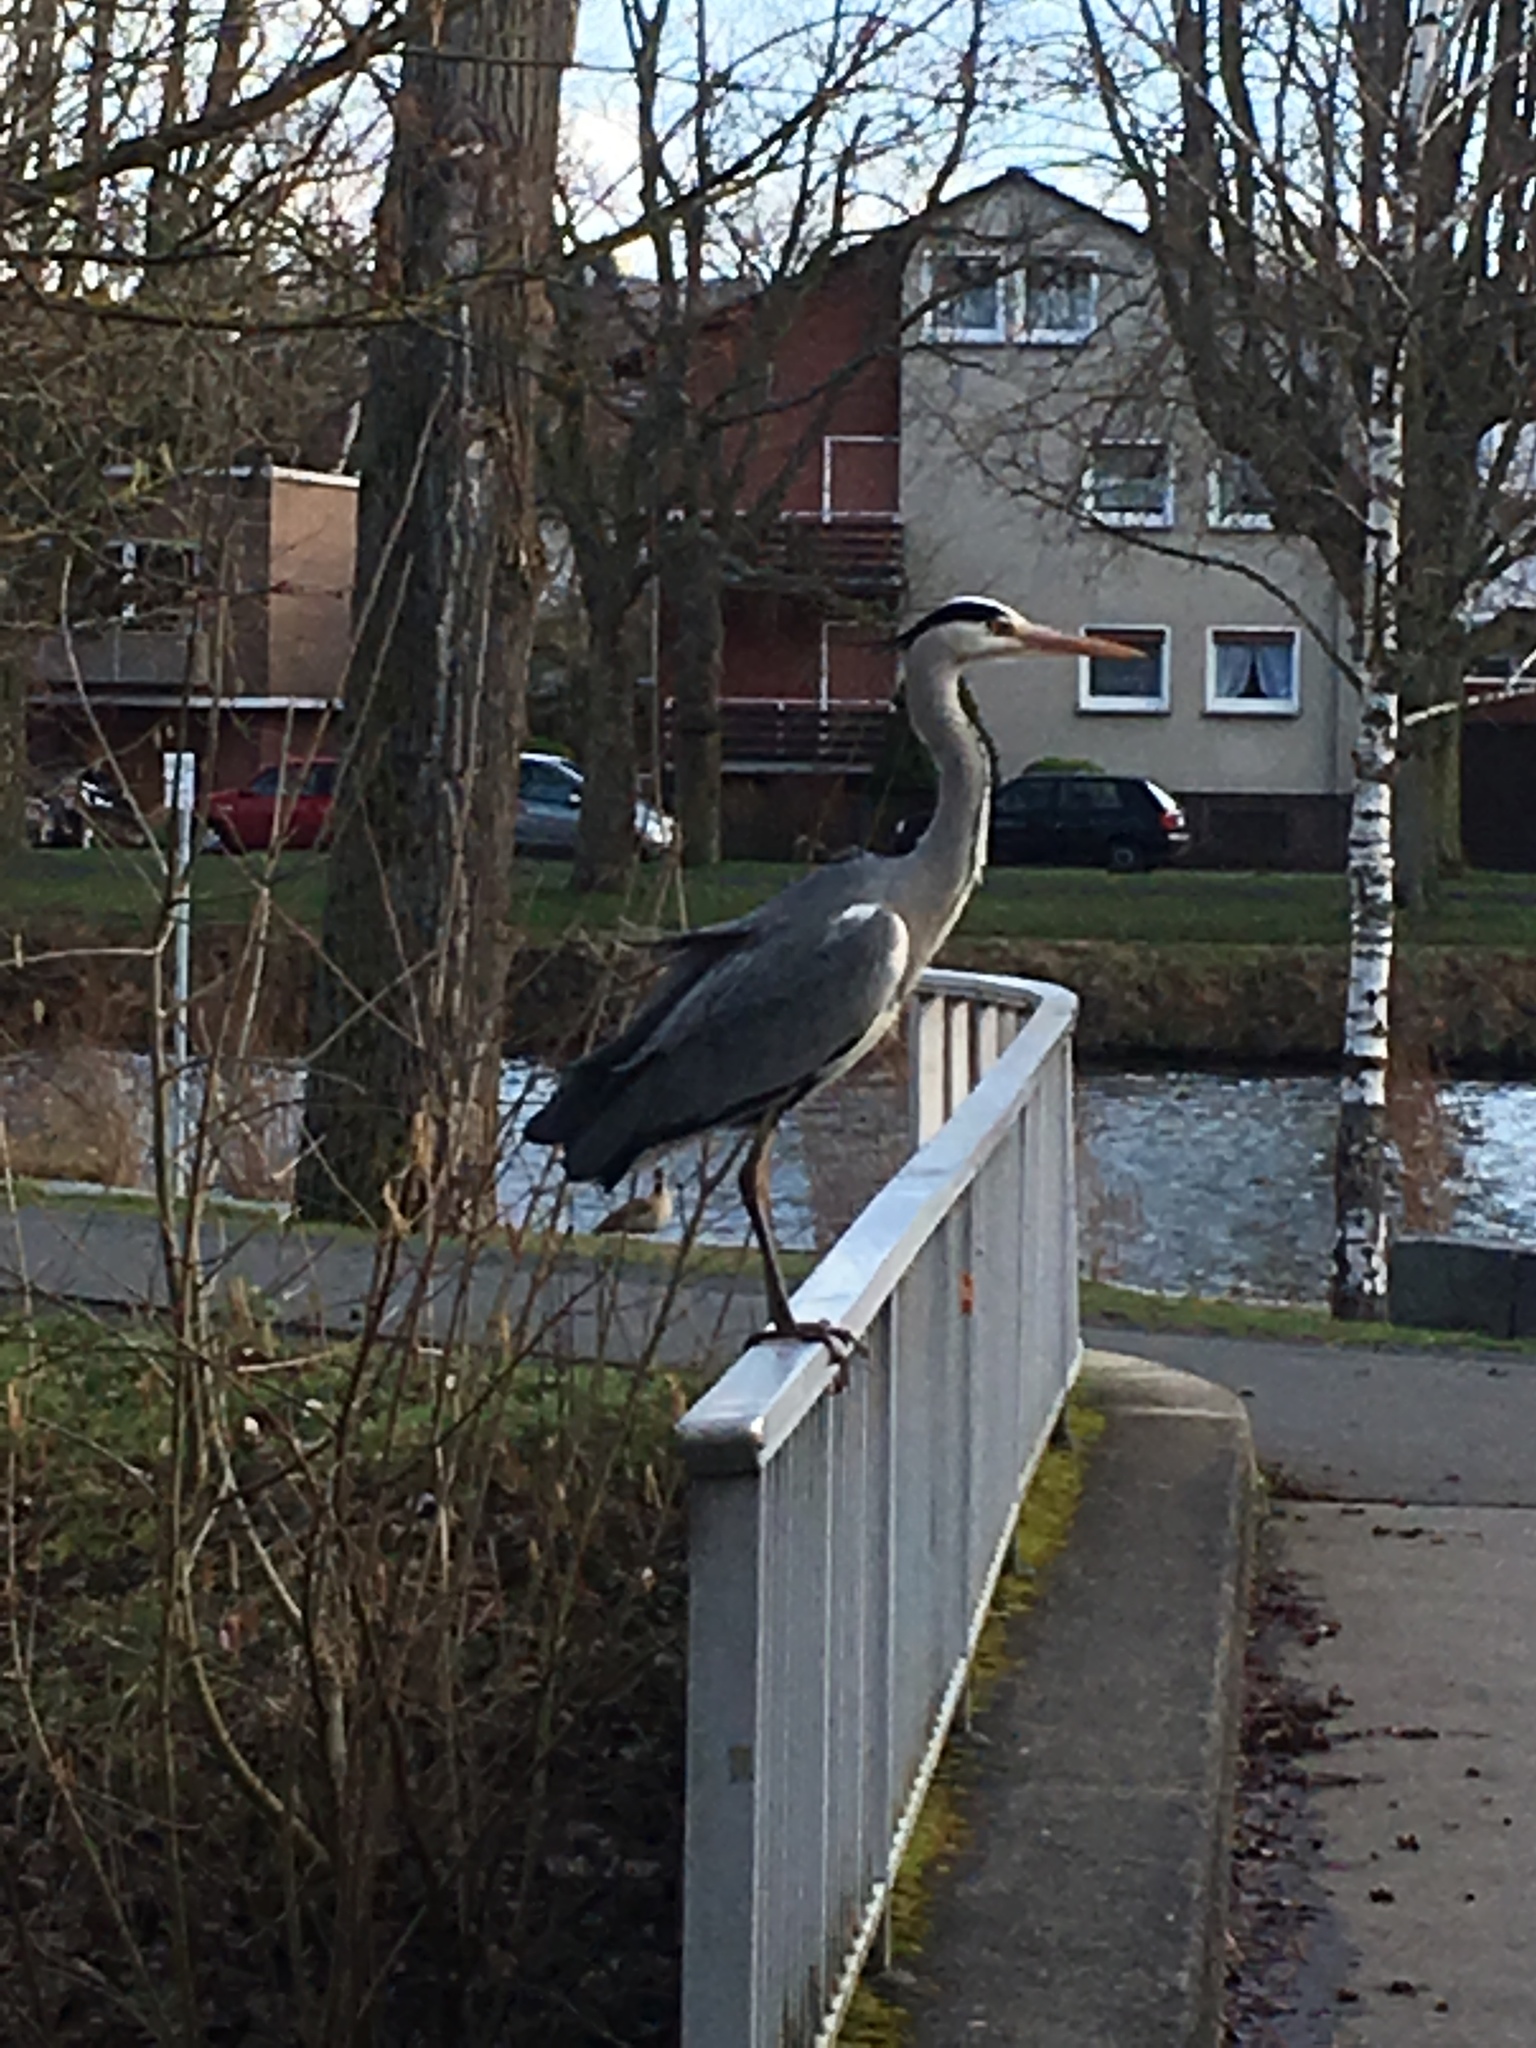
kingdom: Animalia
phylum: Chordata
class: Aves
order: Pelecaniformes
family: Ardeidae
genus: Ardea
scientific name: Ardea cinerea
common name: Grey heron
